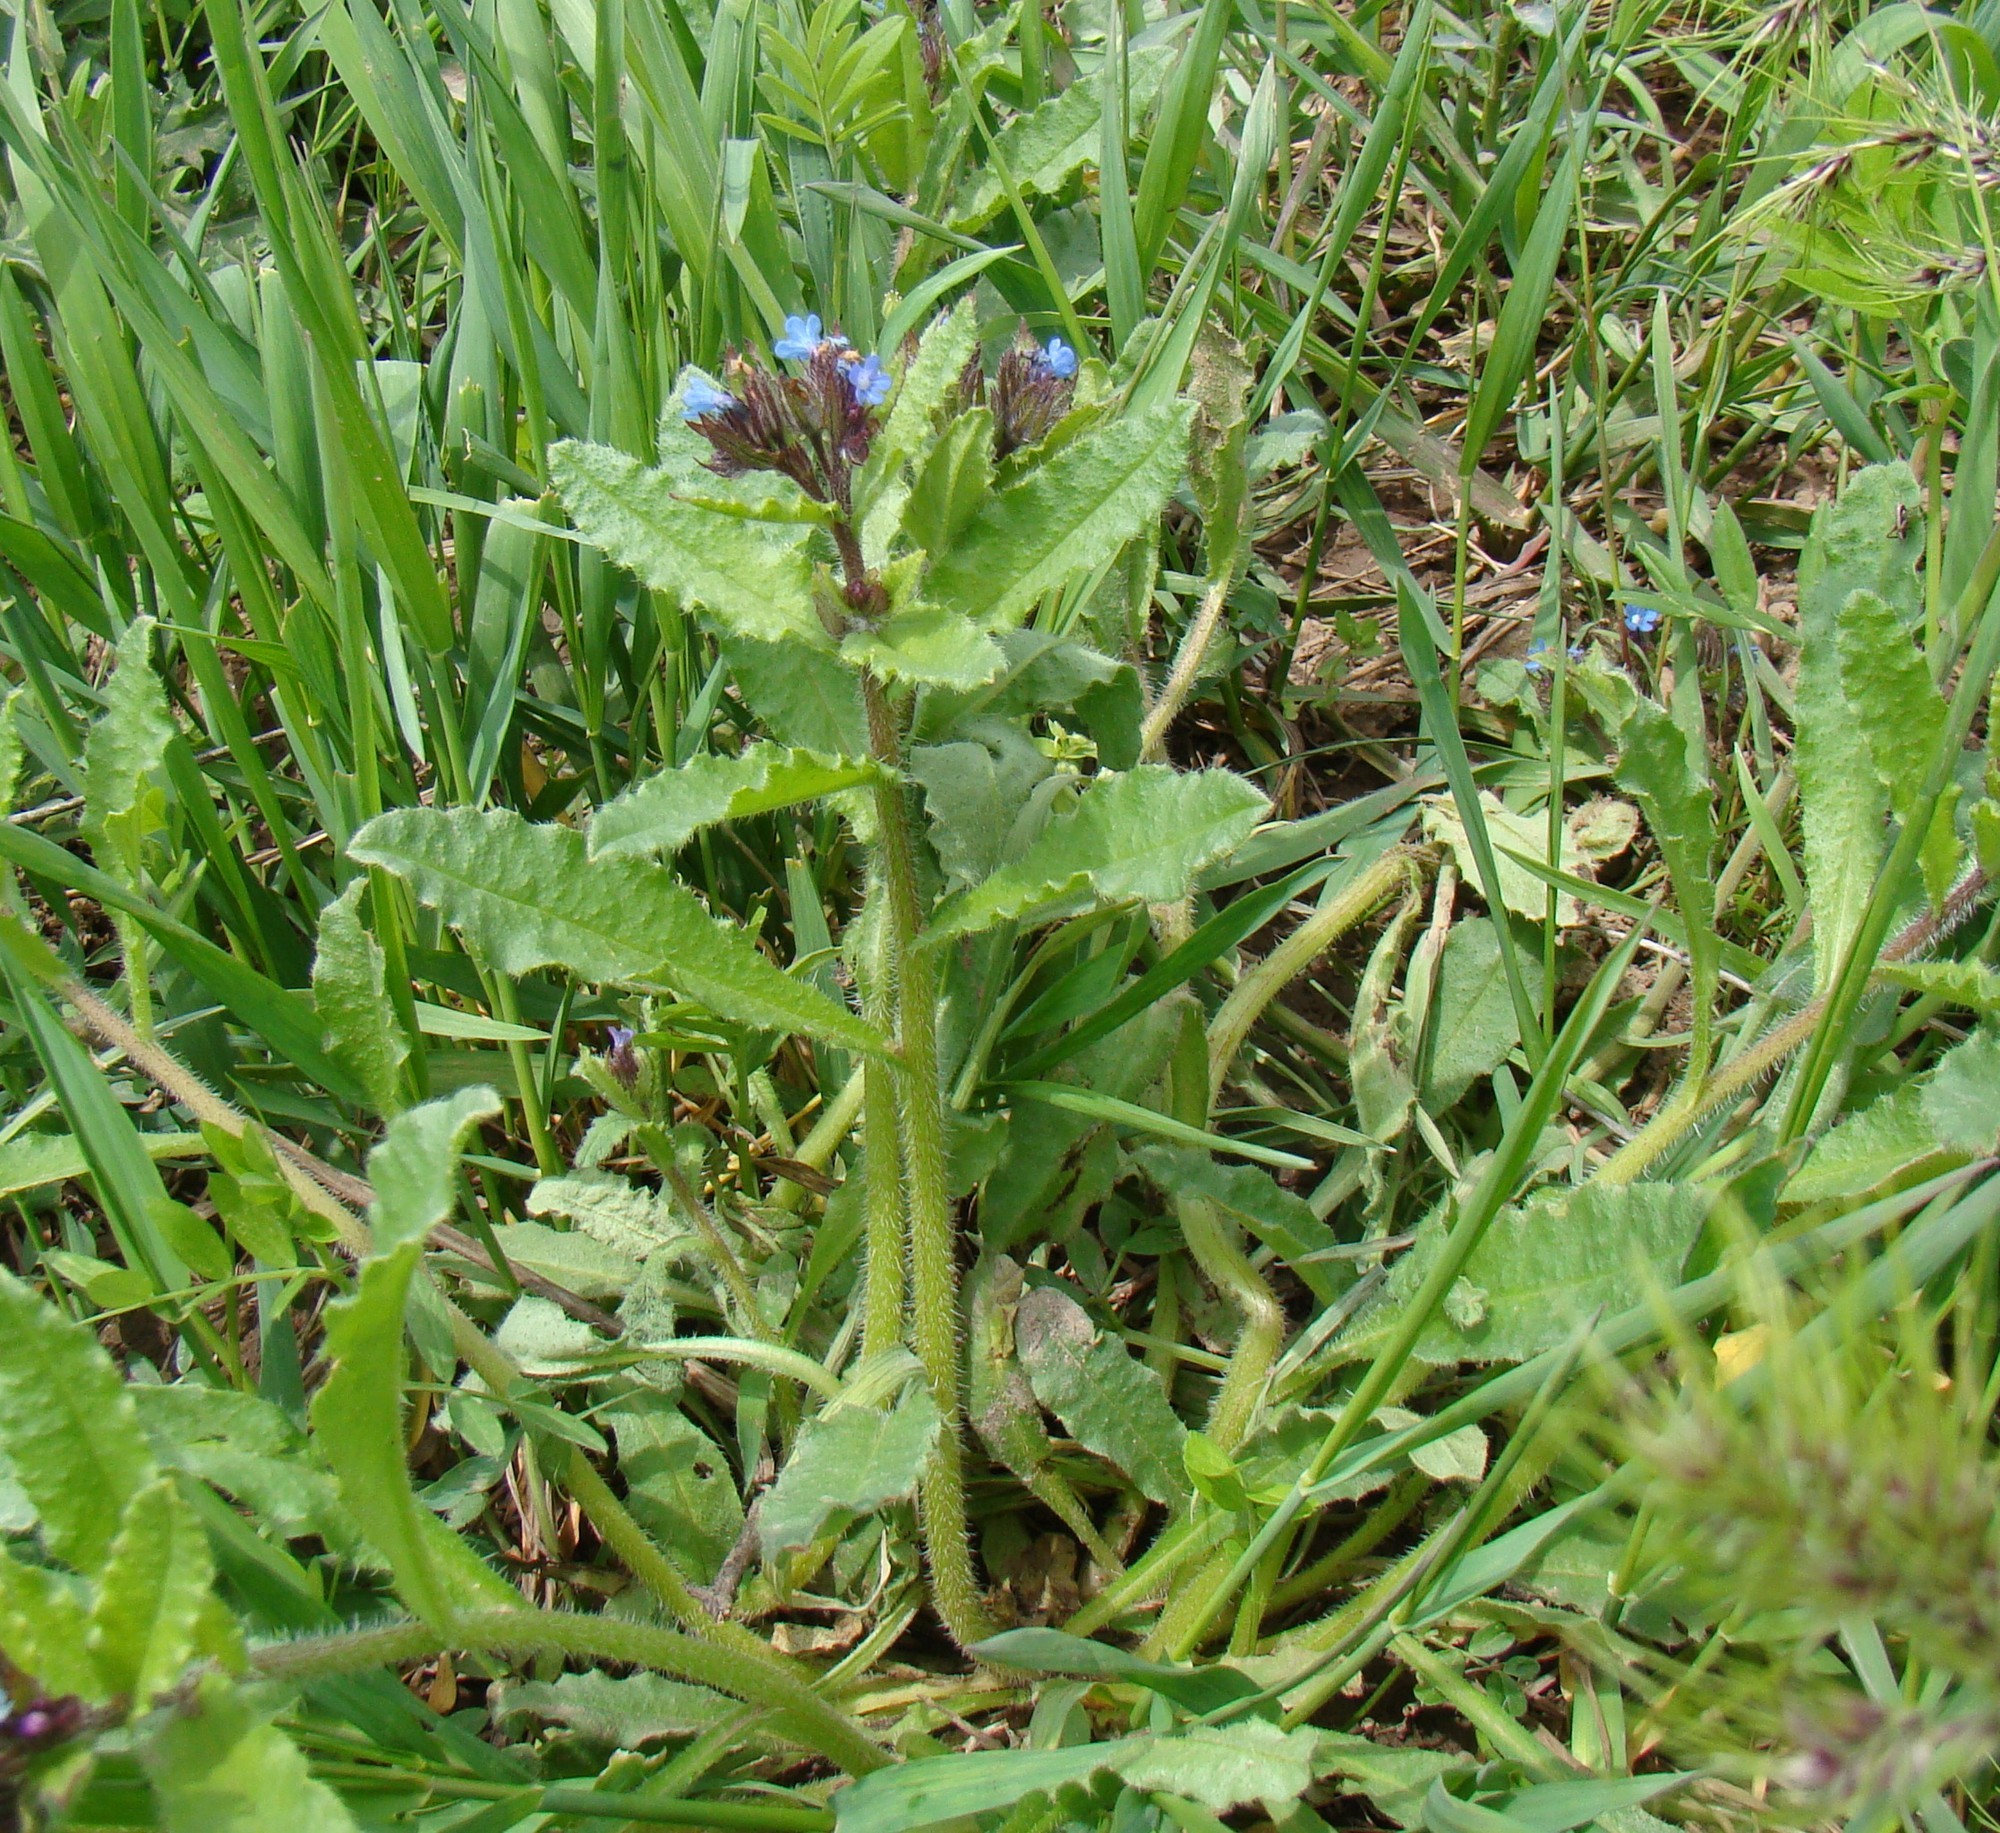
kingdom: Plantae
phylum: Tracheophyta
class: Magnoliopsida
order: Boraginales
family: Boraginaceae
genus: Lycopsis
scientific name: Lycopsis arvensis
